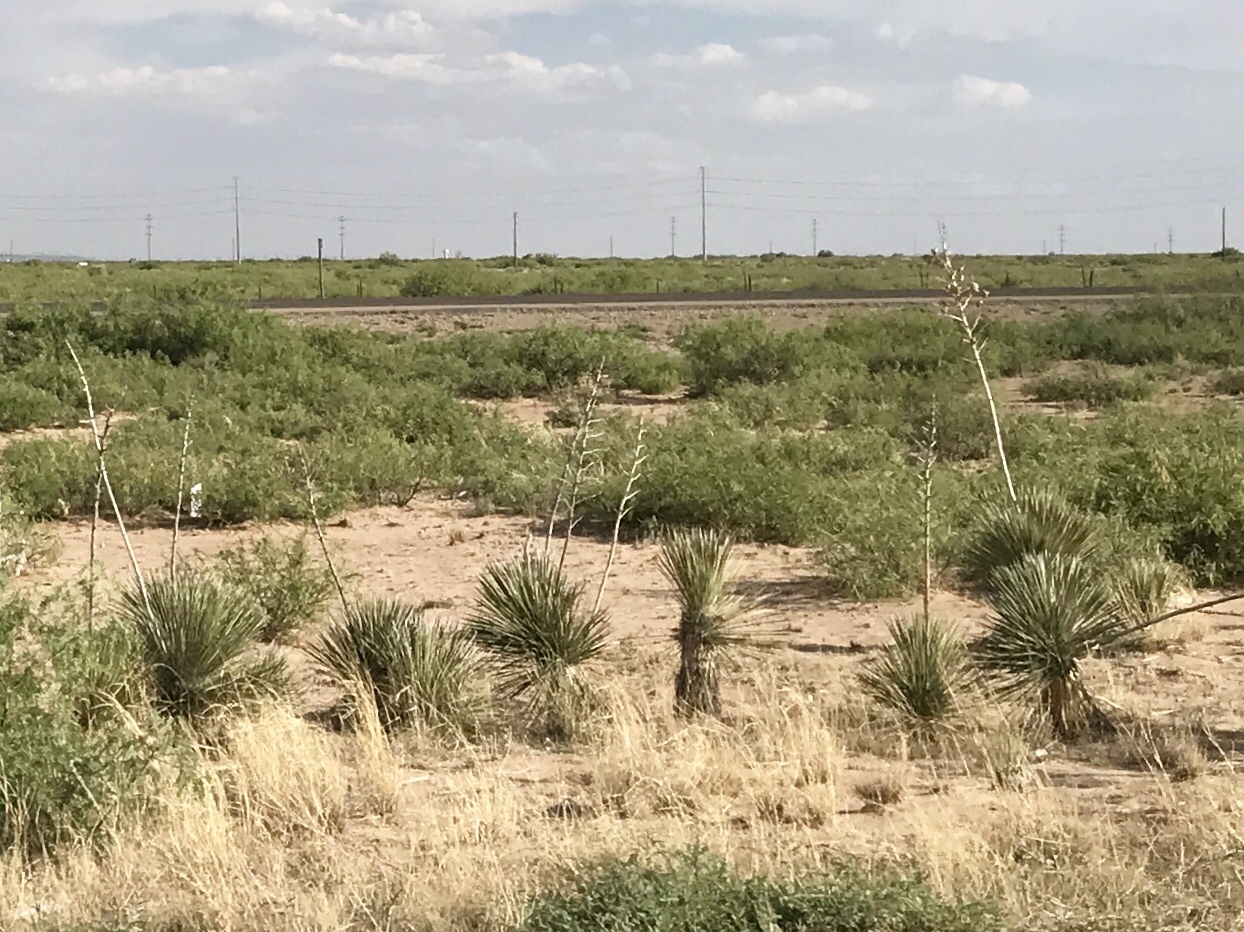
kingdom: Plantae
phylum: Tracheophyta
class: Liliopsida
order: Asparagales
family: Asparagaceae
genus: Yucca
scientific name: Yucca elata
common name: Palmella
